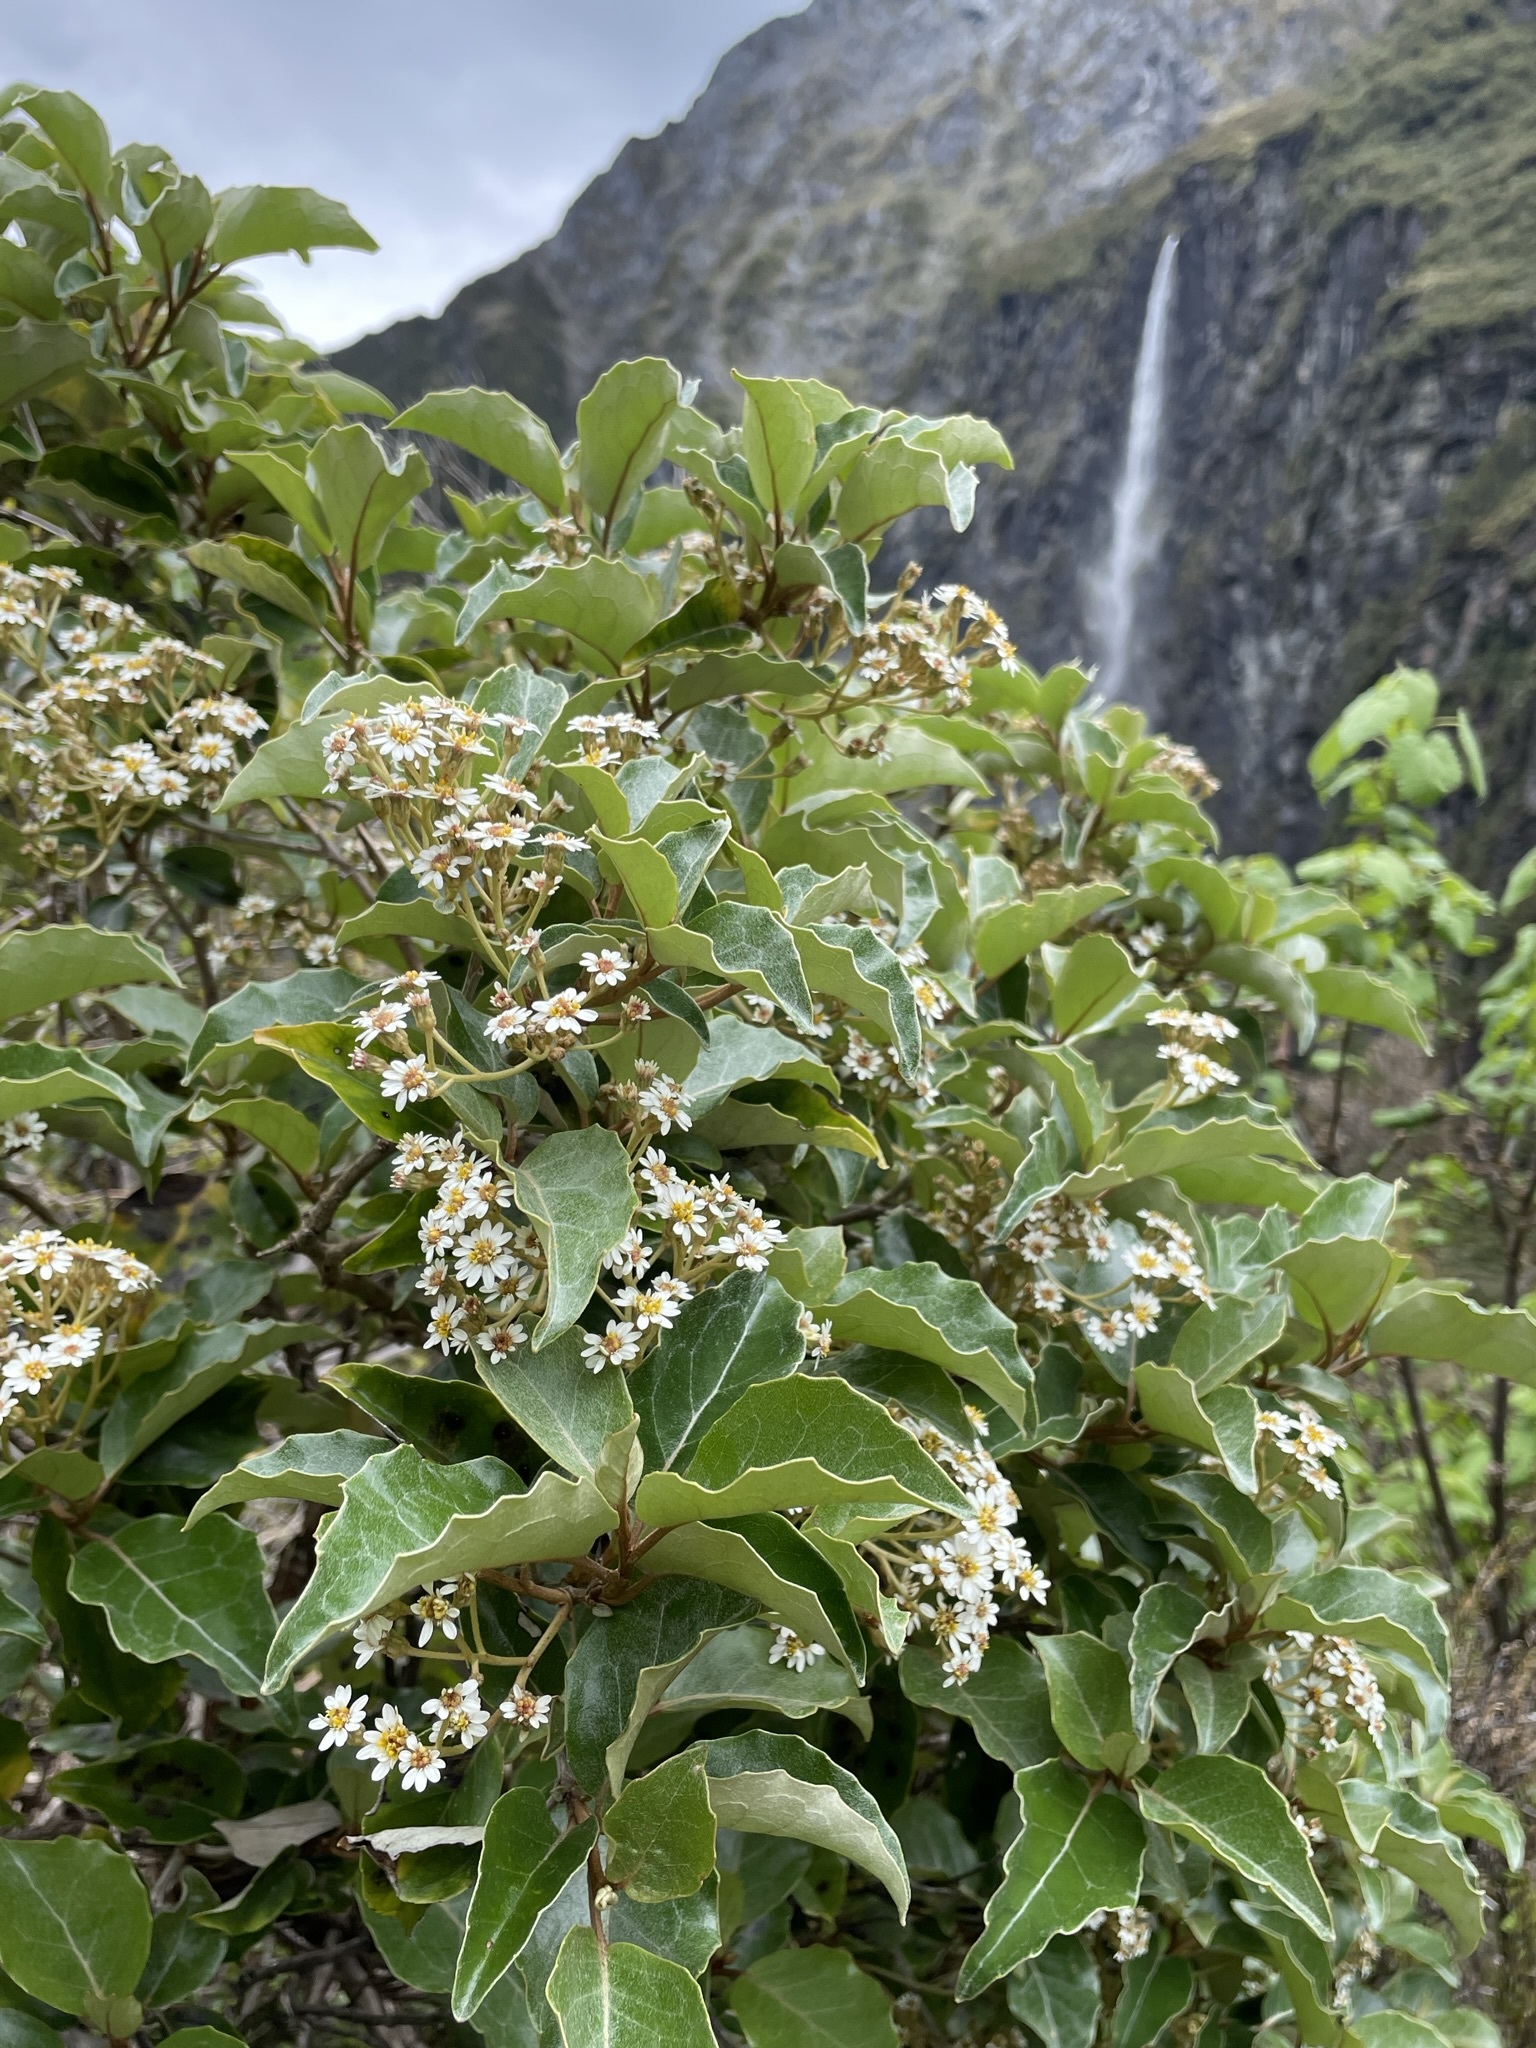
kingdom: Plantae
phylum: Tracheophyta
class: Magnoliopsida
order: Asterales
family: Asteraceae
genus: Olearia
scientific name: Olearia arborescens
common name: Glossy tree daisy
